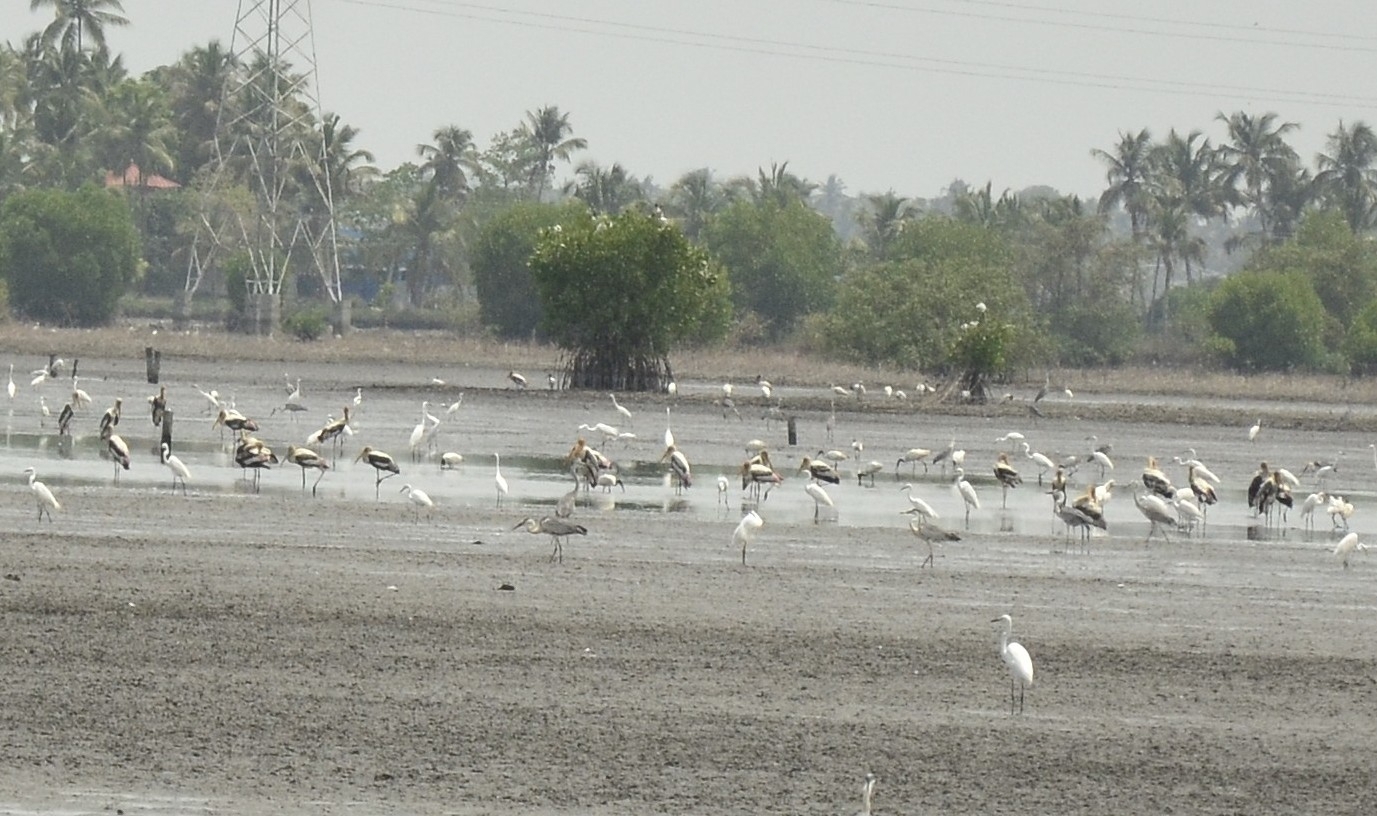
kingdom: Animalia
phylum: Chordata
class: Aves
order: Ciconiiformes
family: Ciconiidae
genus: Mycteria
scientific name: Mycteria leucocephala
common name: Painted stork
